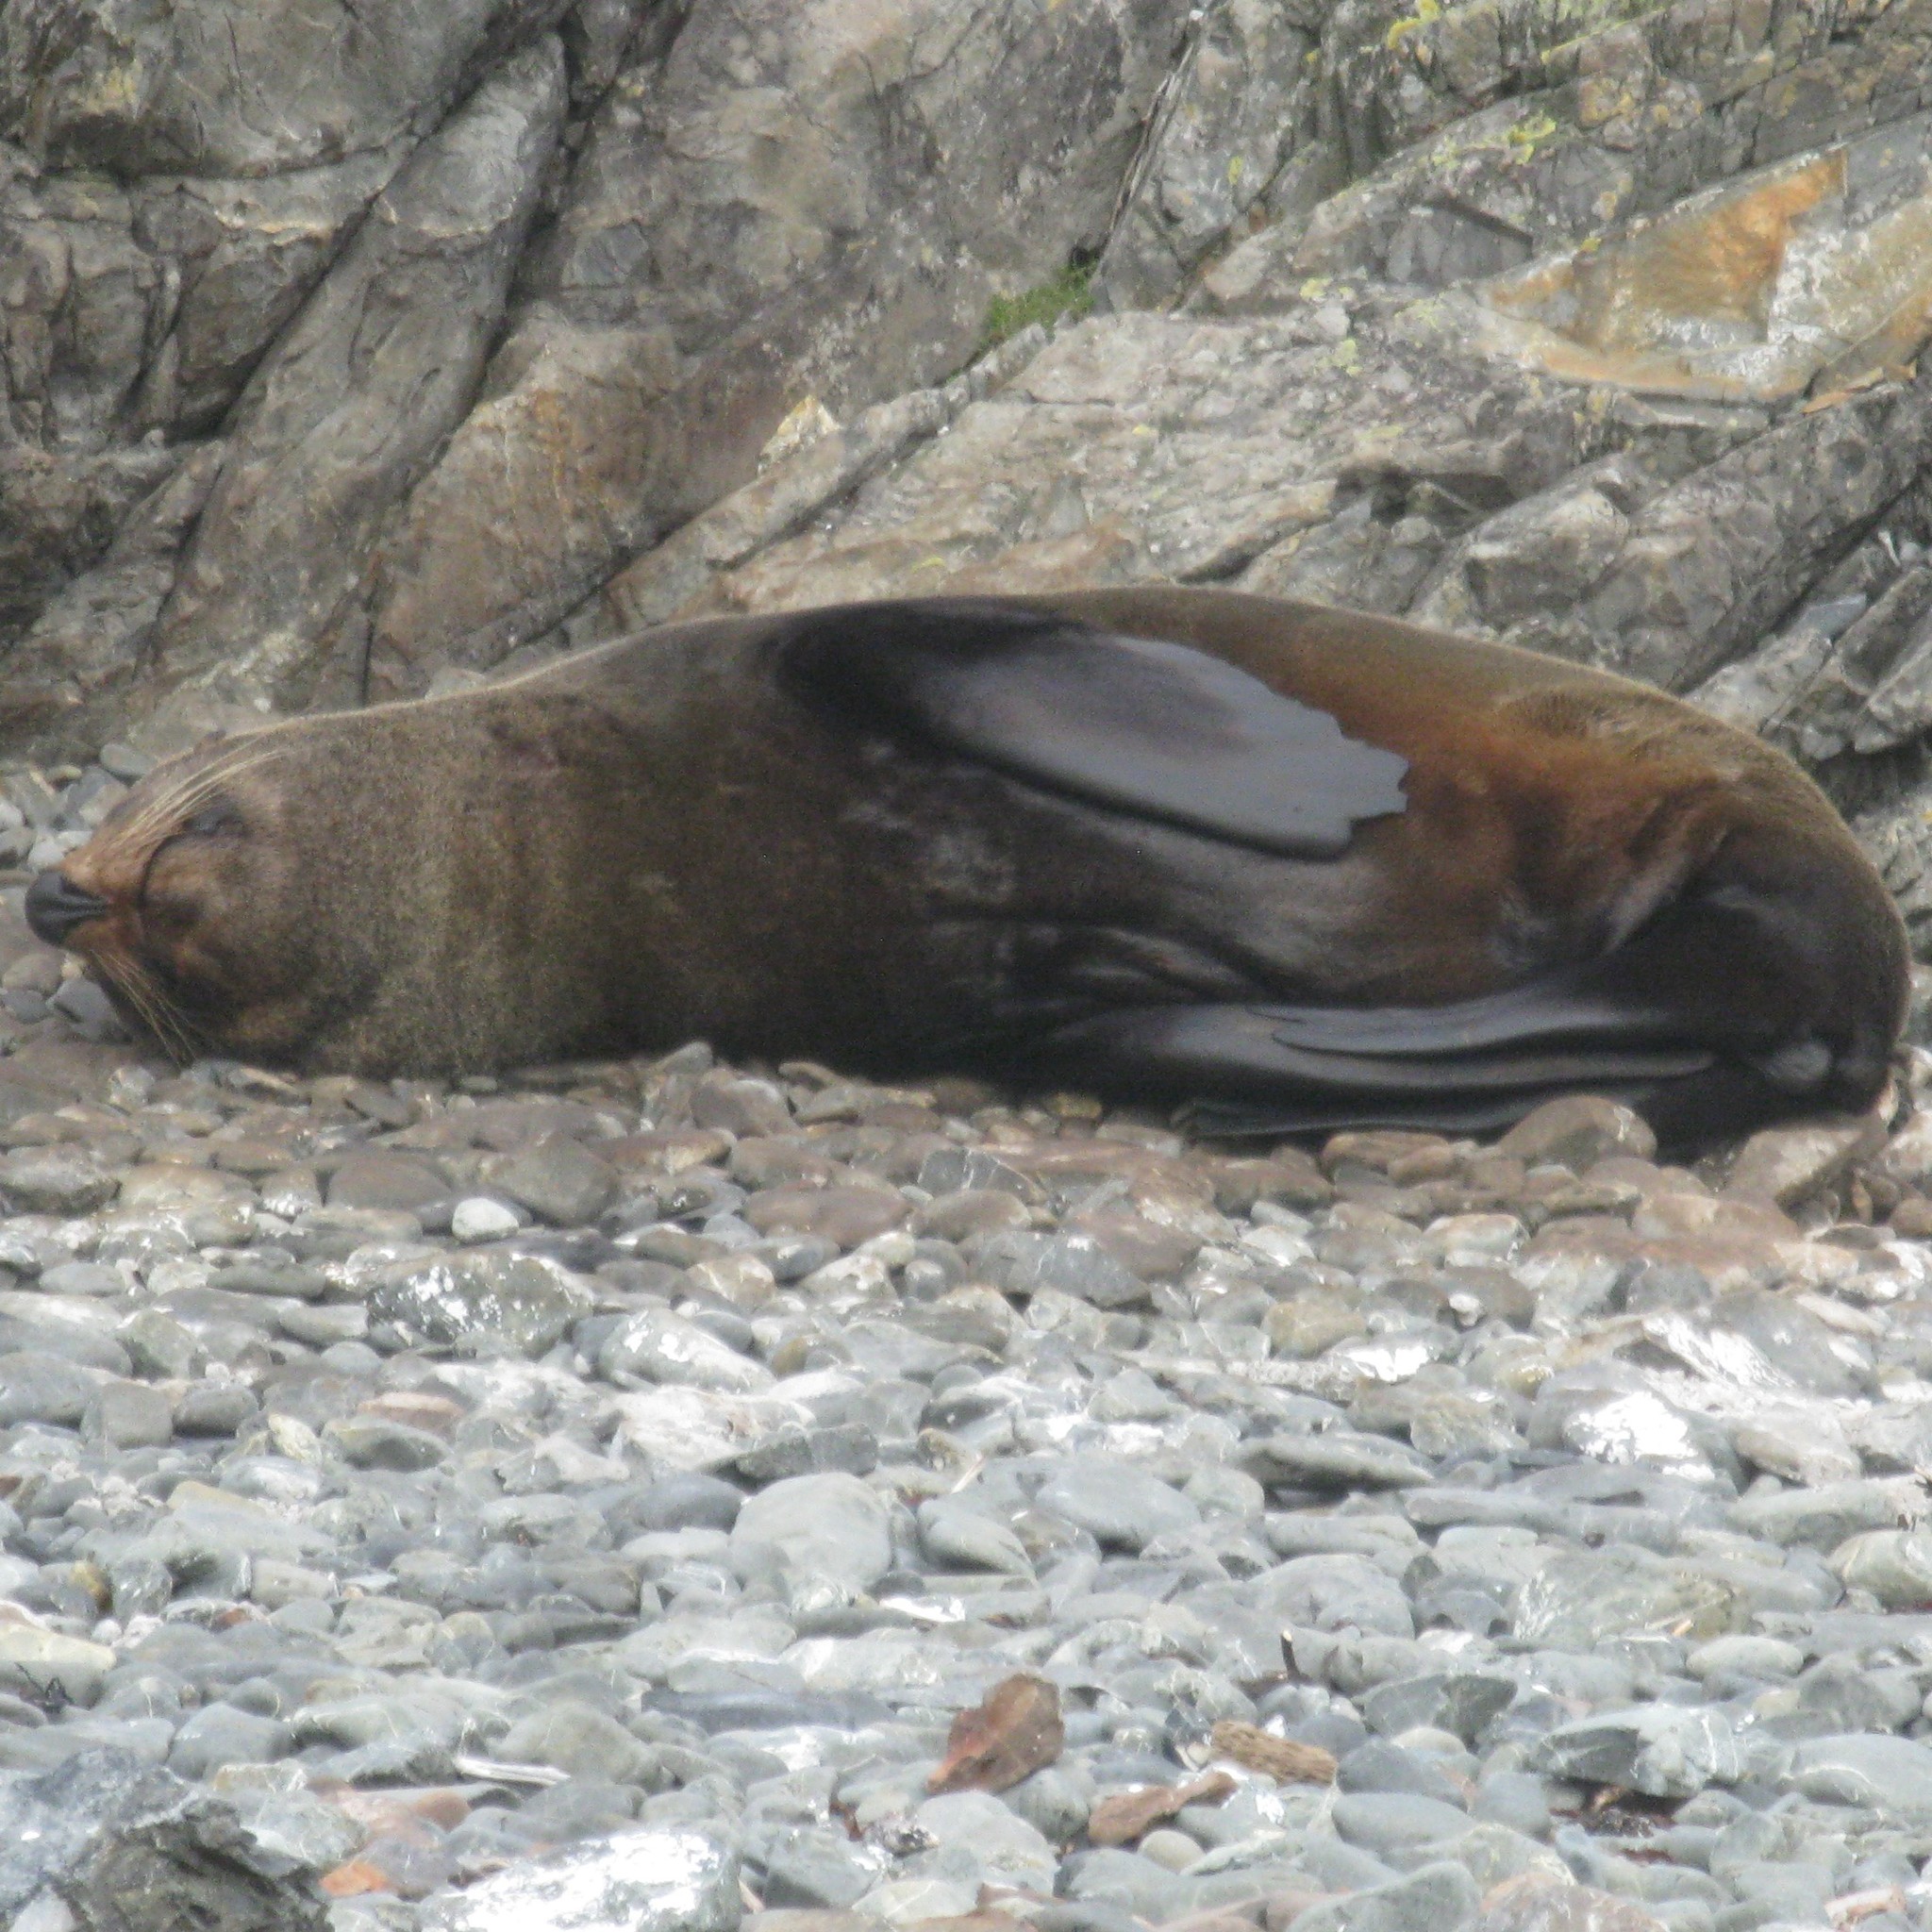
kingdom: Animalia
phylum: Chordata
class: Mammalia
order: Carnivora
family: Otariidae
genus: Arctocephalus
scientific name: Arctocephalus forsteri
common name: New zealand fur seal
